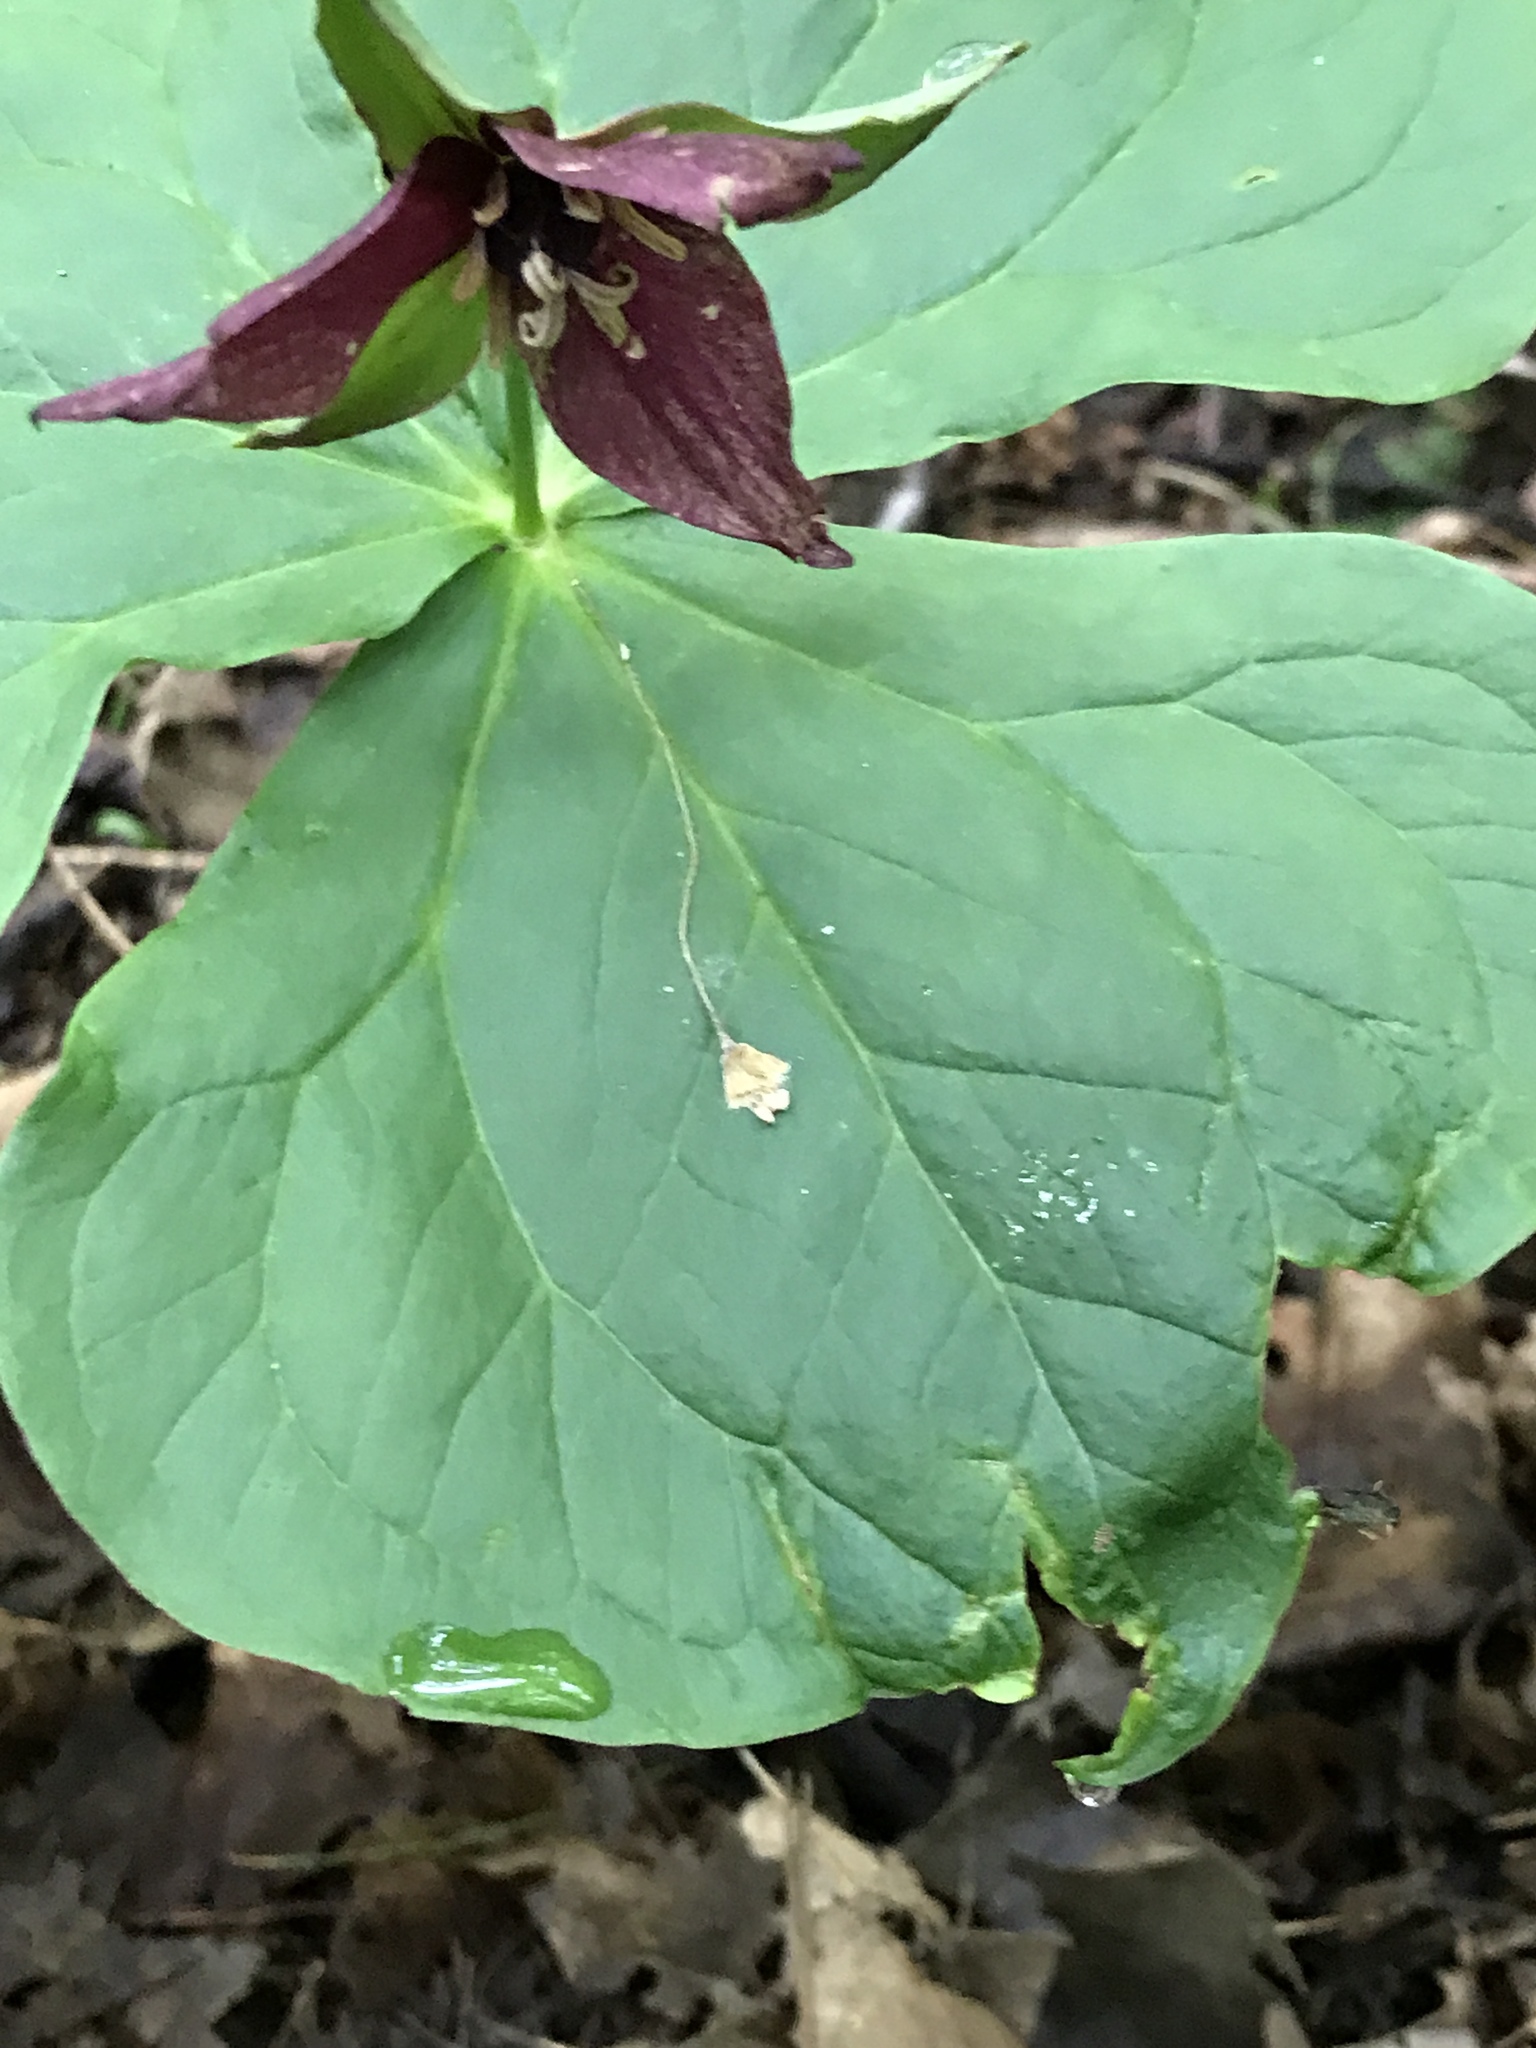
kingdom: Plantae
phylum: Tracheophyta
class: Liliopsida
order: Liliales
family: Melanthiaceae
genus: Trillium
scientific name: Trillium erectum
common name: Purple trillium
